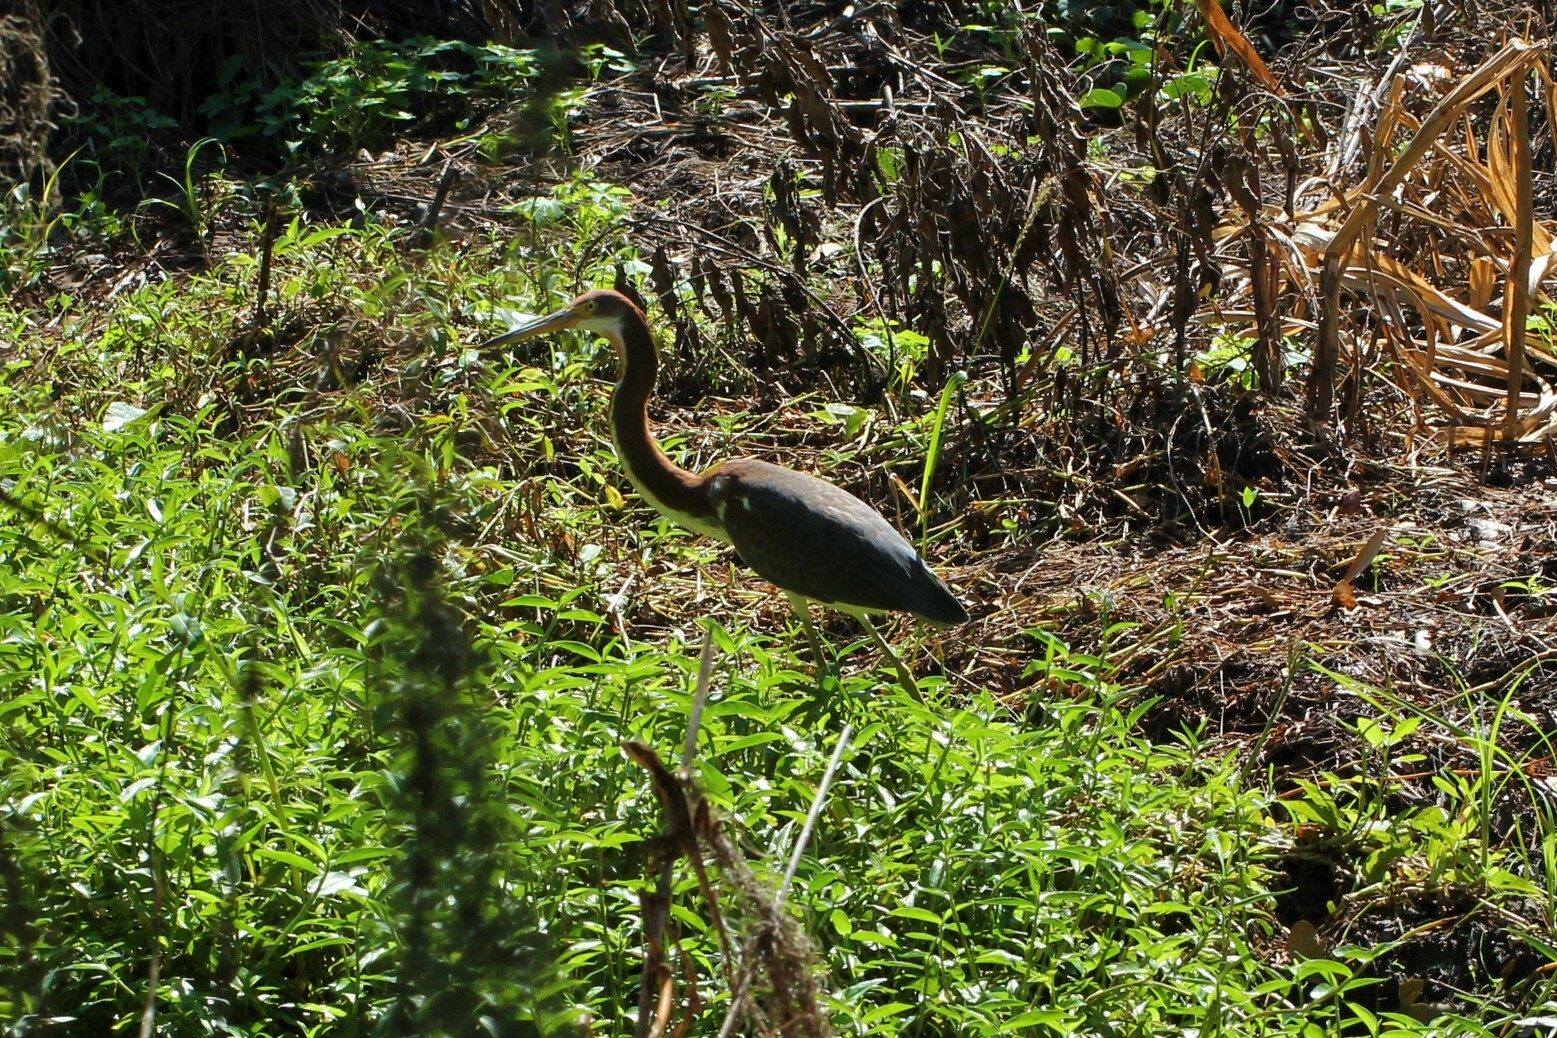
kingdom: Animalia
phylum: Chordata
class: Aves
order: Pelecaniformes
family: Ardeidae
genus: Egretta
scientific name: Egretta tricolor
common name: Tricolored heron
